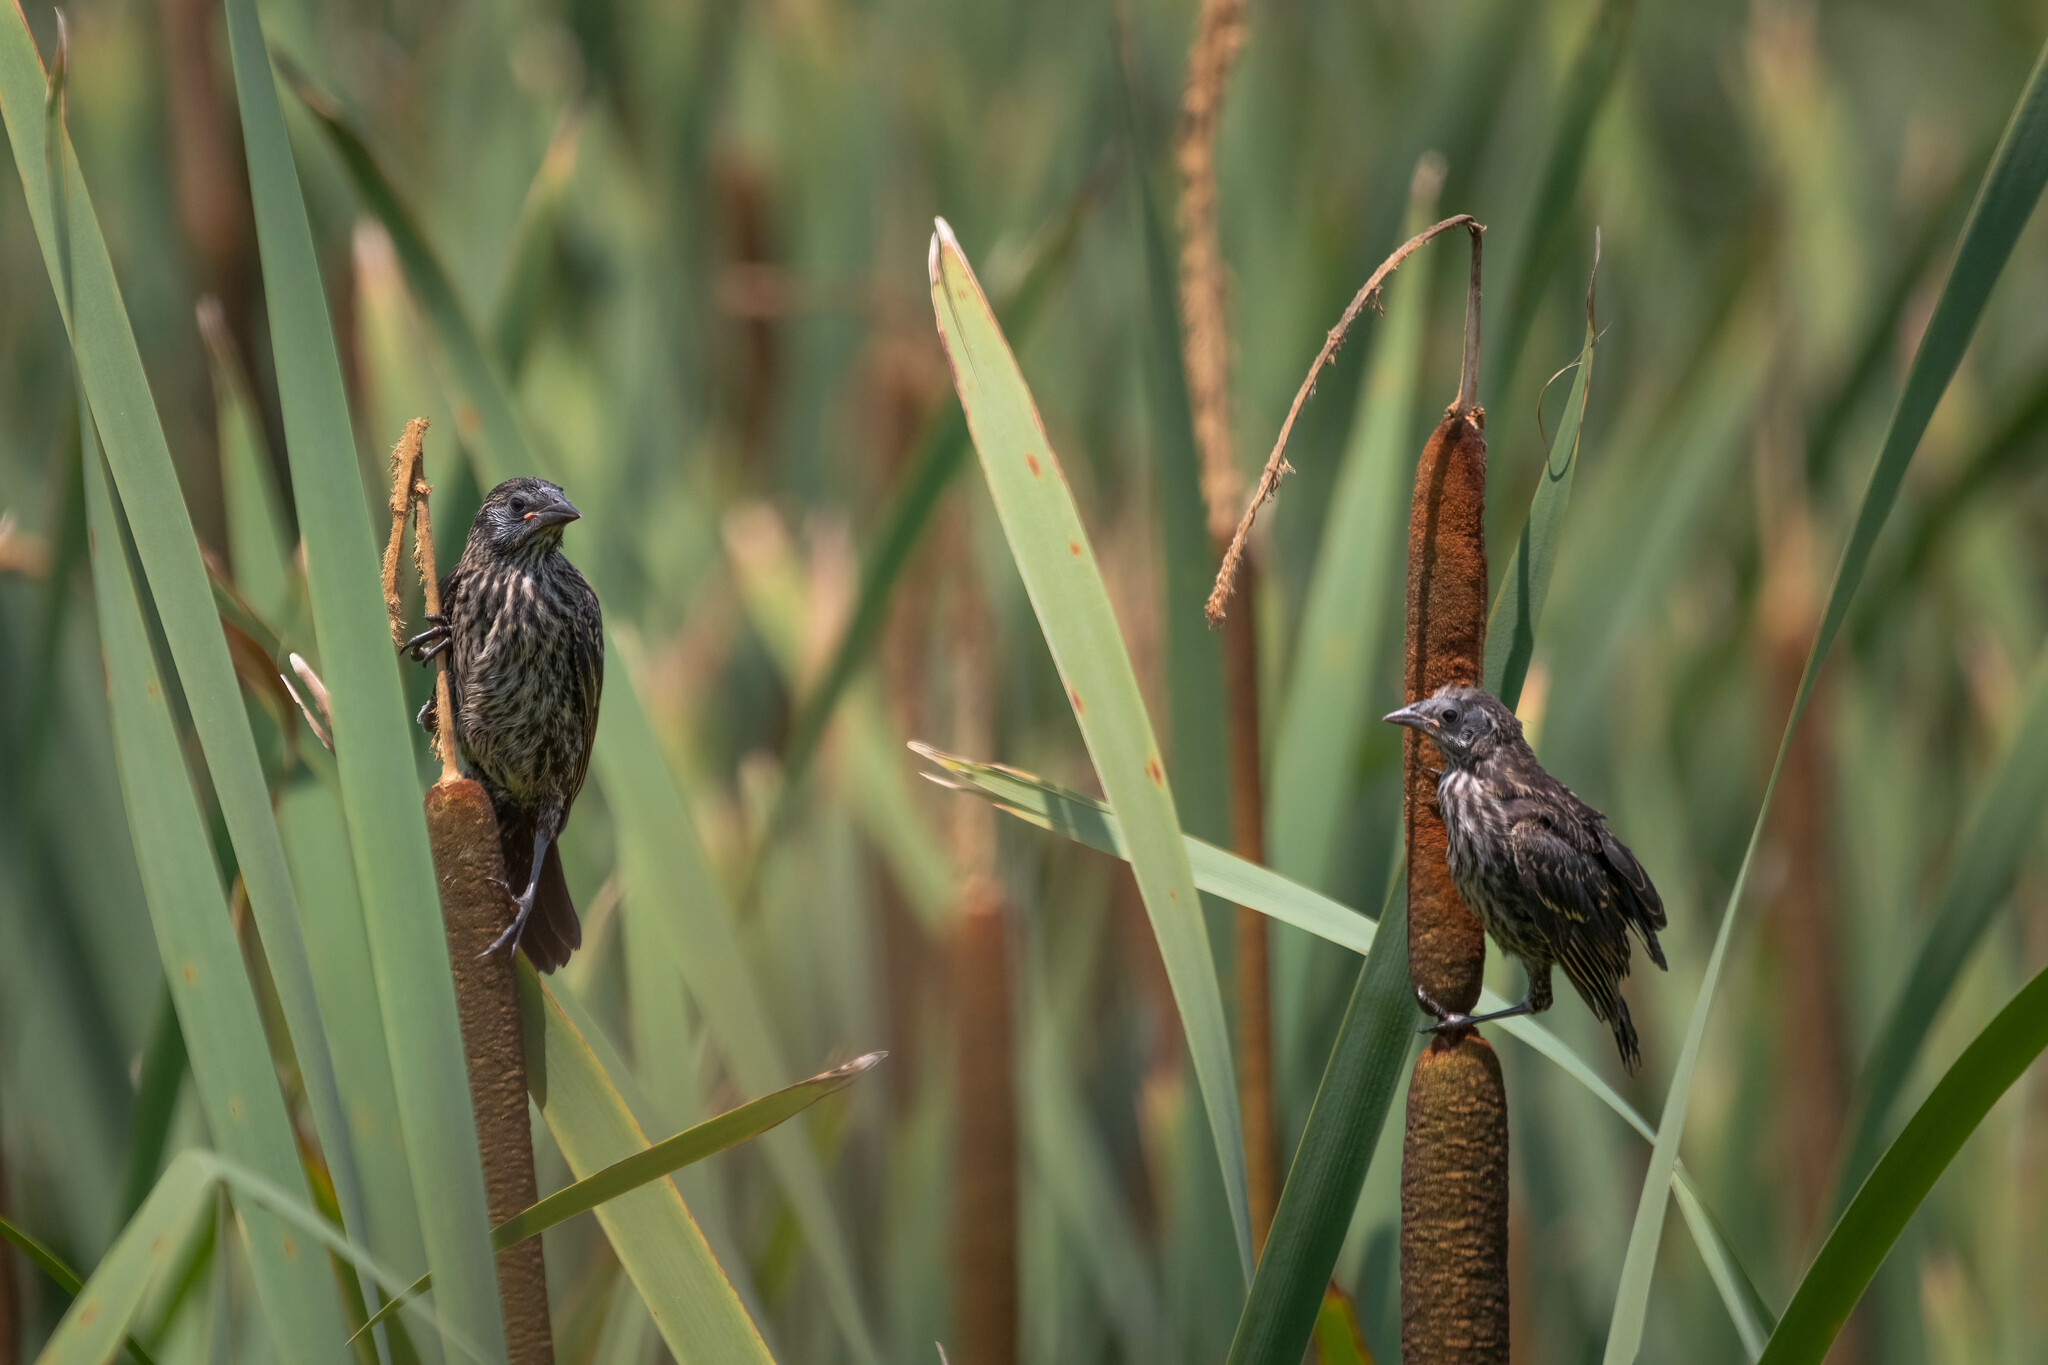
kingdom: Animalia
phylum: Chordata
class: Aves
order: Passeriformes
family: Icteridae
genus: Agelaius
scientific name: Agelaius phoeniceus
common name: Red-winged blackbird
